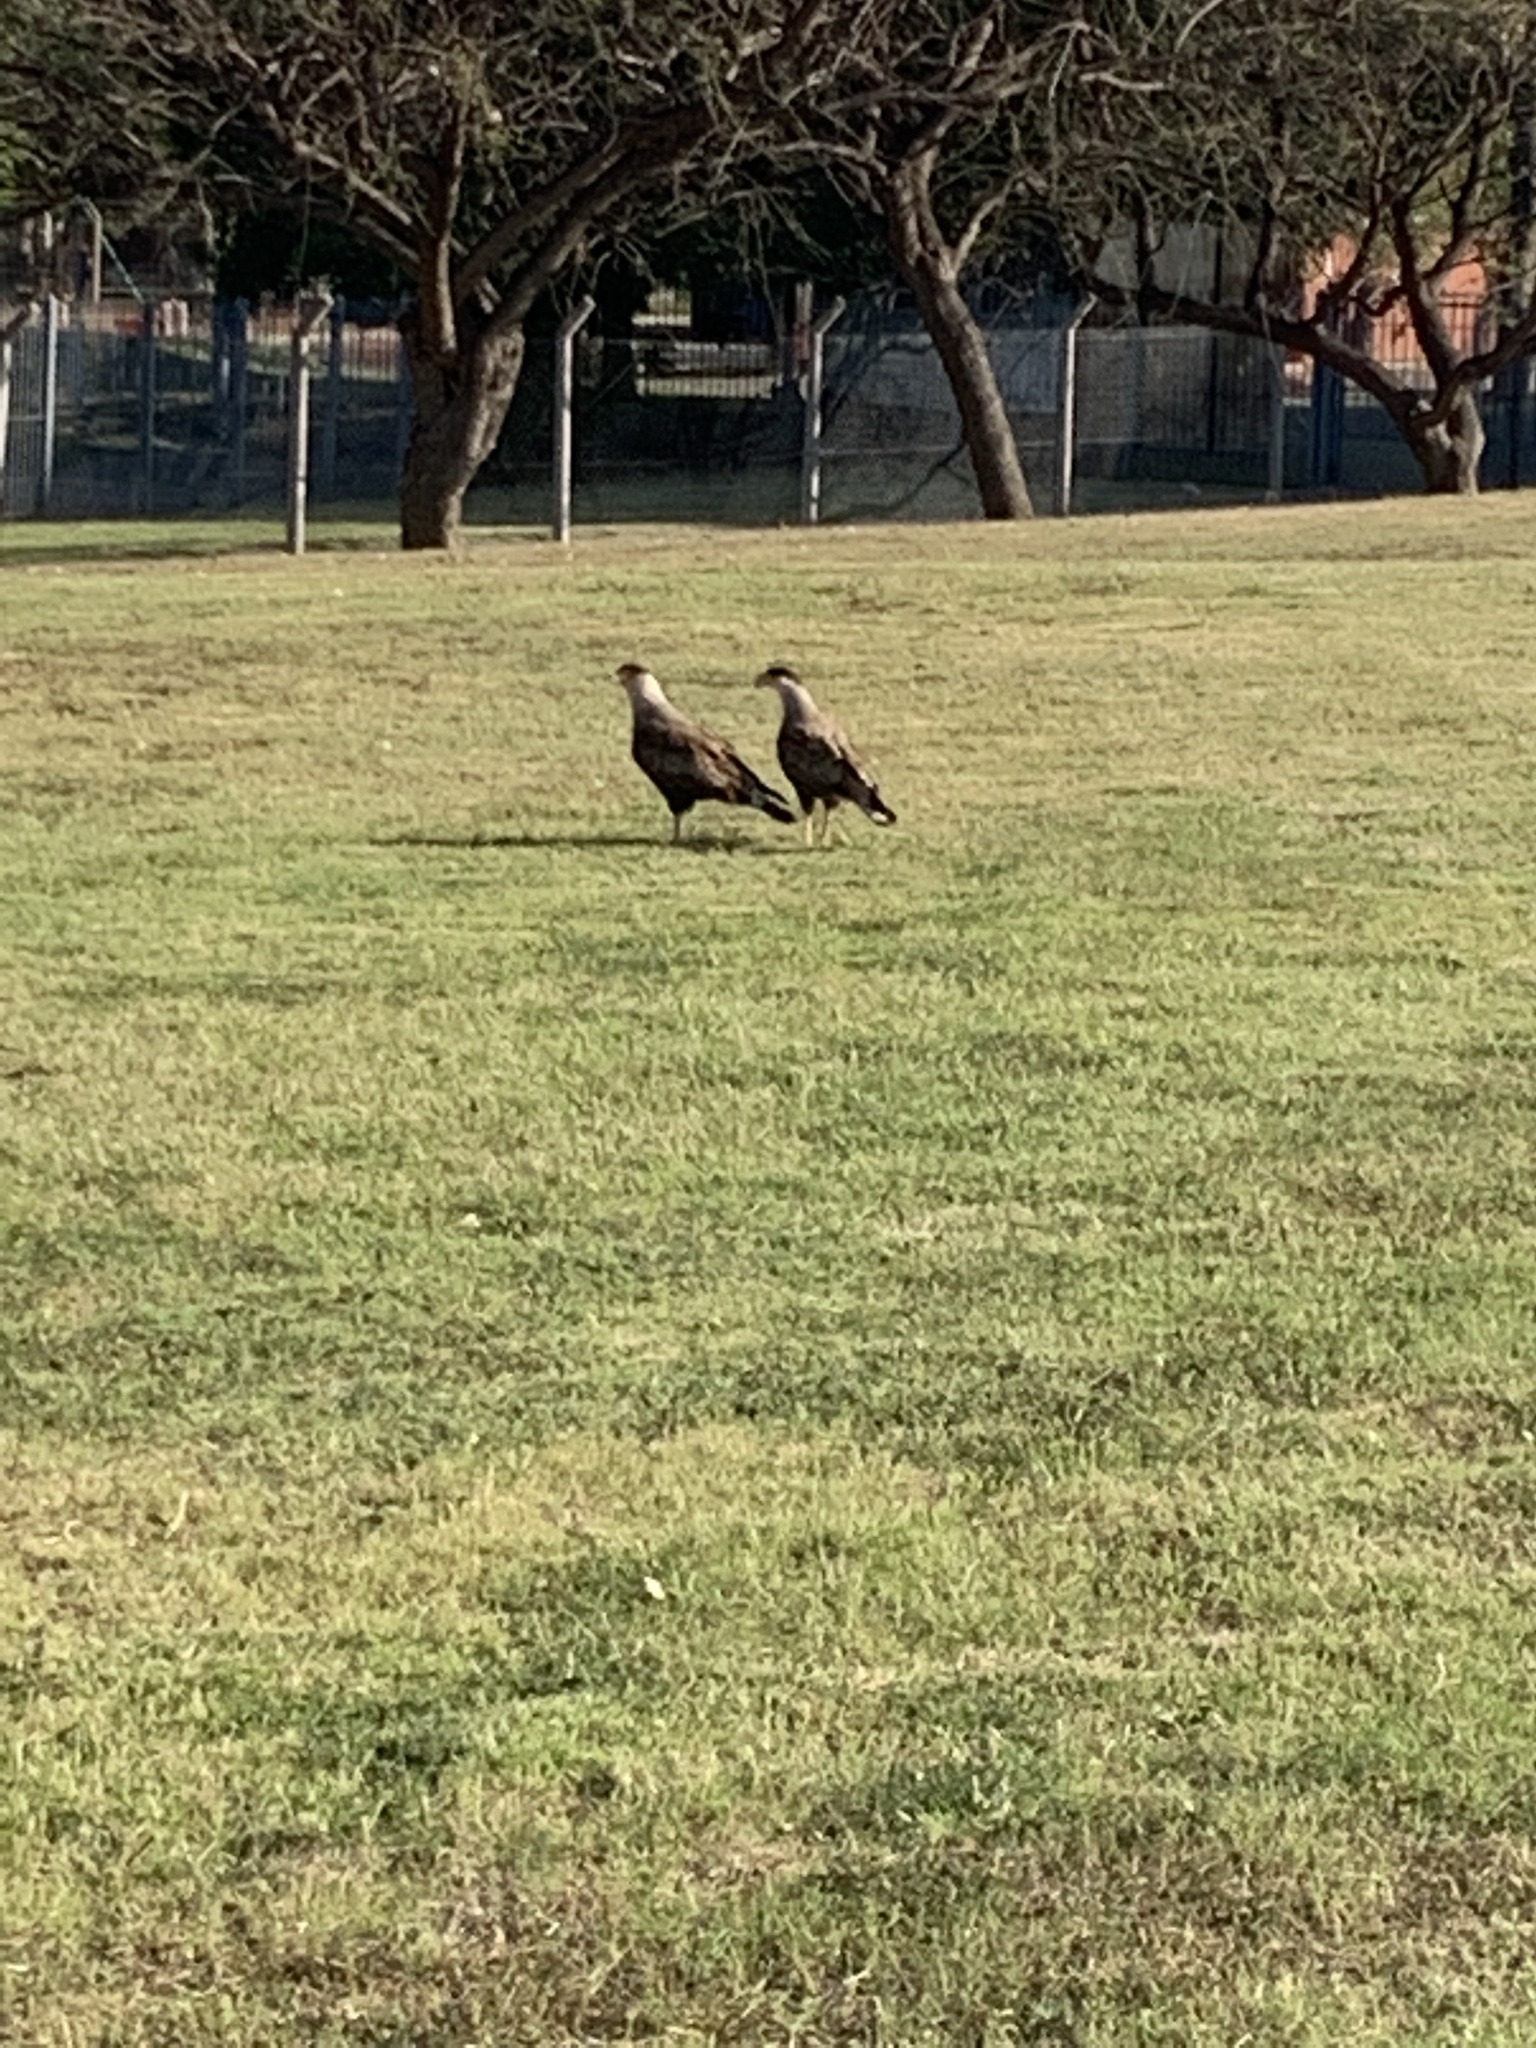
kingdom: Animalia
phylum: Chordata
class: Aves
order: Falconiformes
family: Falconidae
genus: Caracara
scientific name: Caracara plancus
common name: Southern caracara
